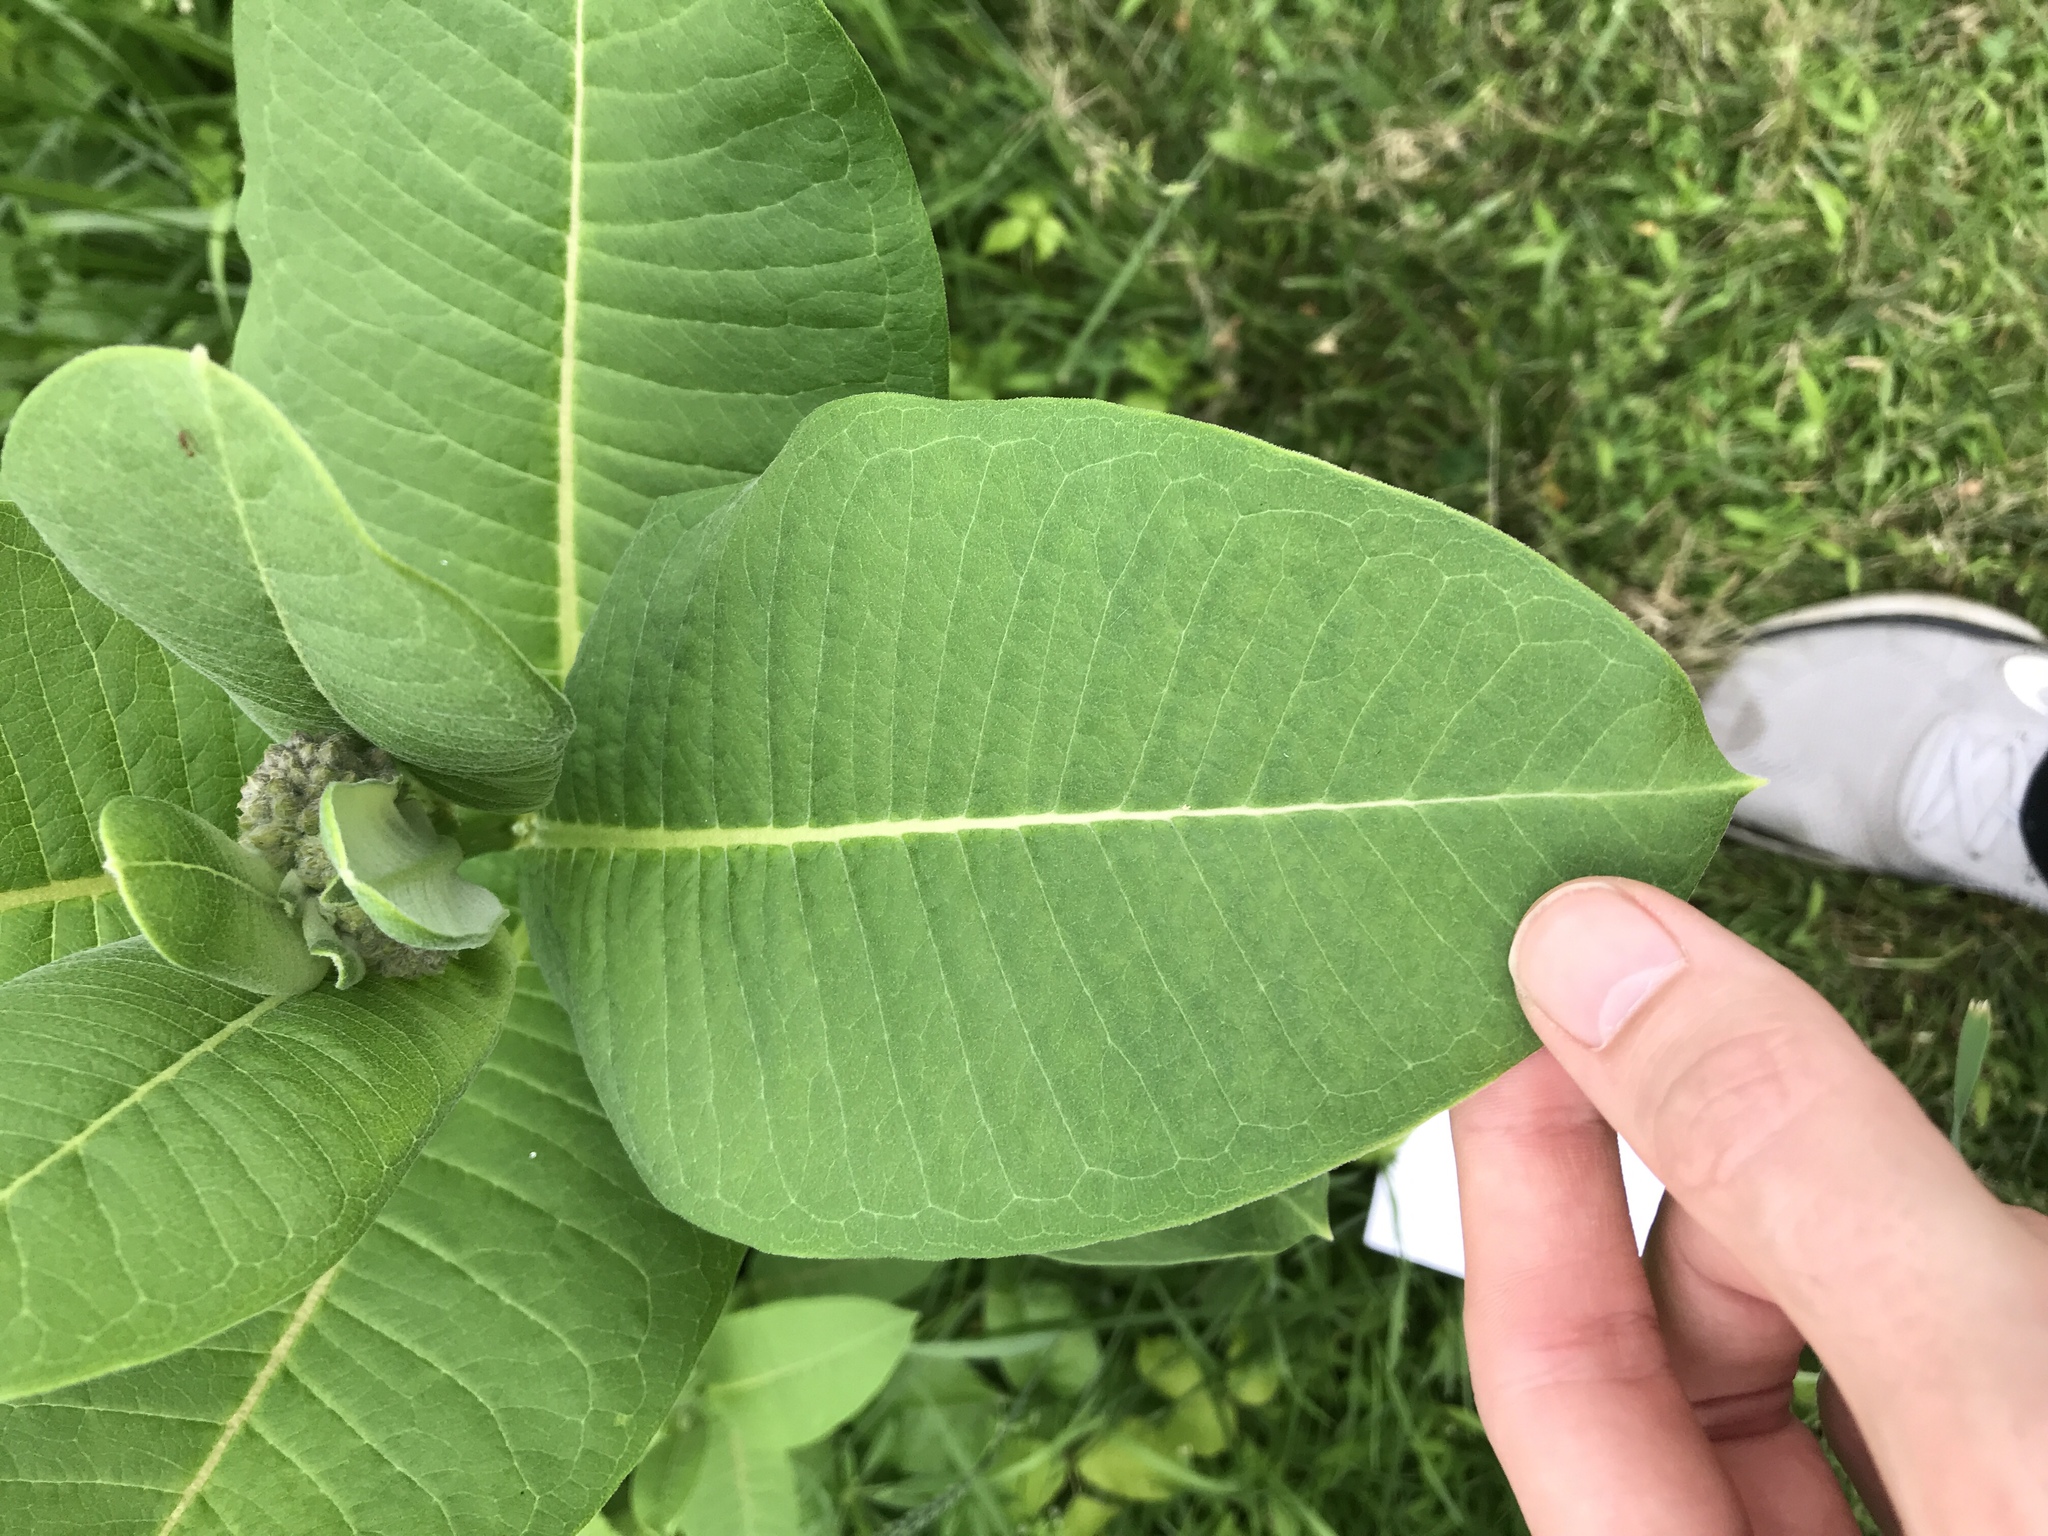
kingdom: Plantae
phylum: Tracheophyta
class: Magnoliopsida
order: Gentianales
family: Apocynaceae
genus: Asclepias
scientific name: Asclepias syriaca
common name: Common milkweed
